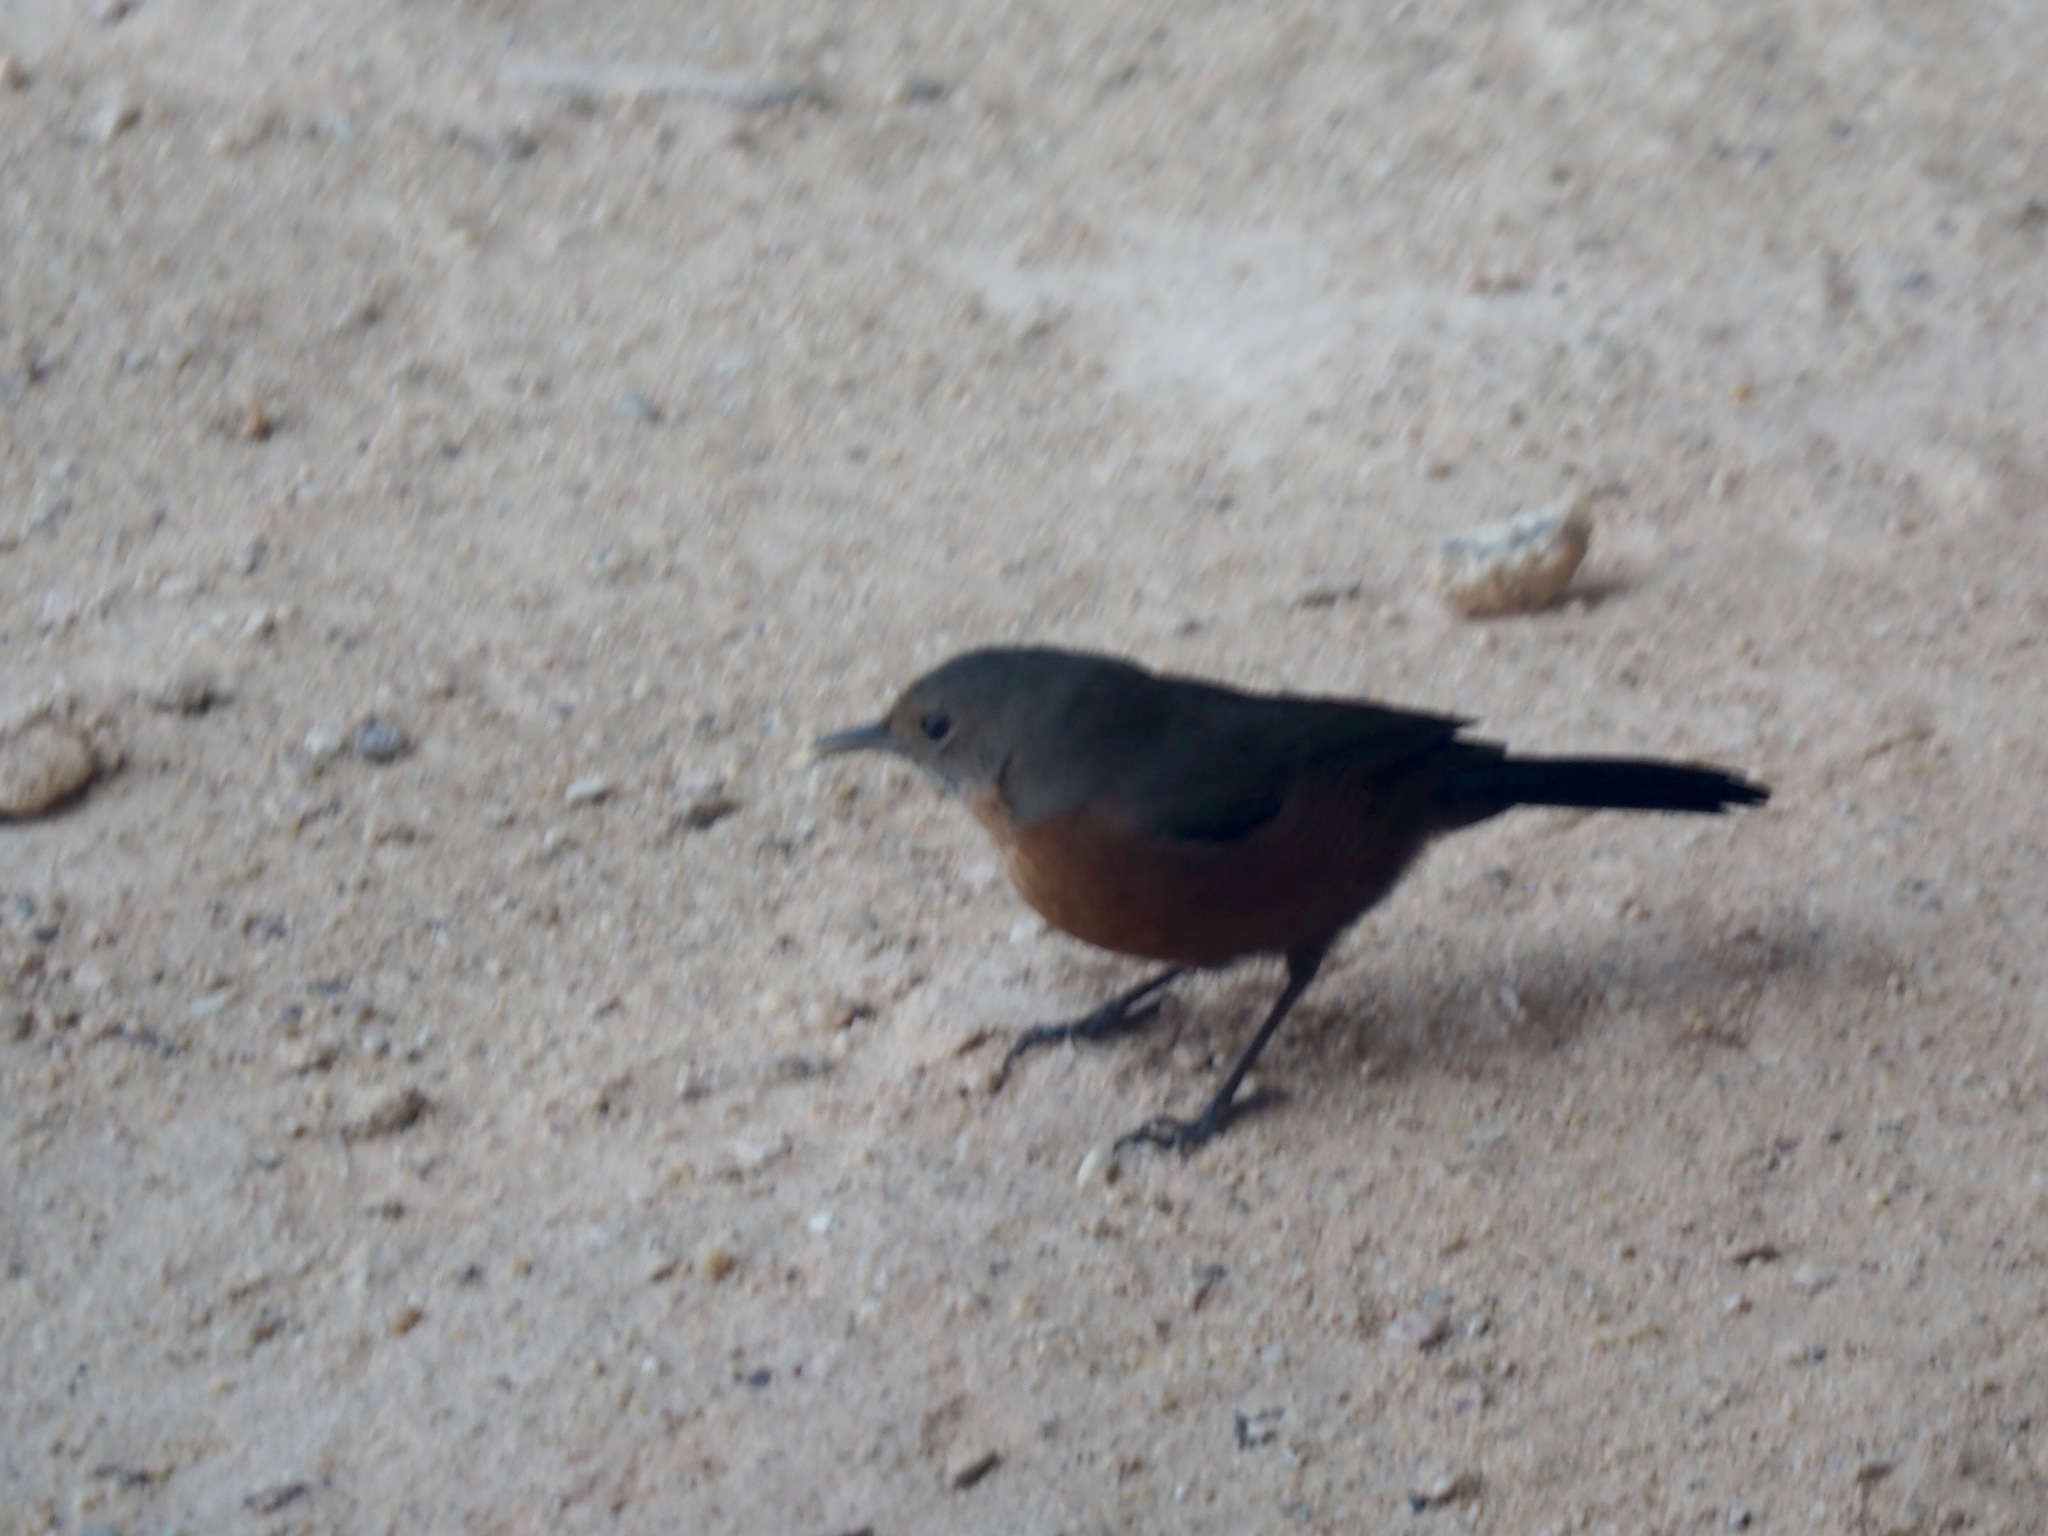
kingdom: Animalia
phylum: Chordata
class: Aves
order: Passeriformes
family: Acanthizidae
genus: Origma
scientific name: Origma solitaria
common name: Rockwarbler
